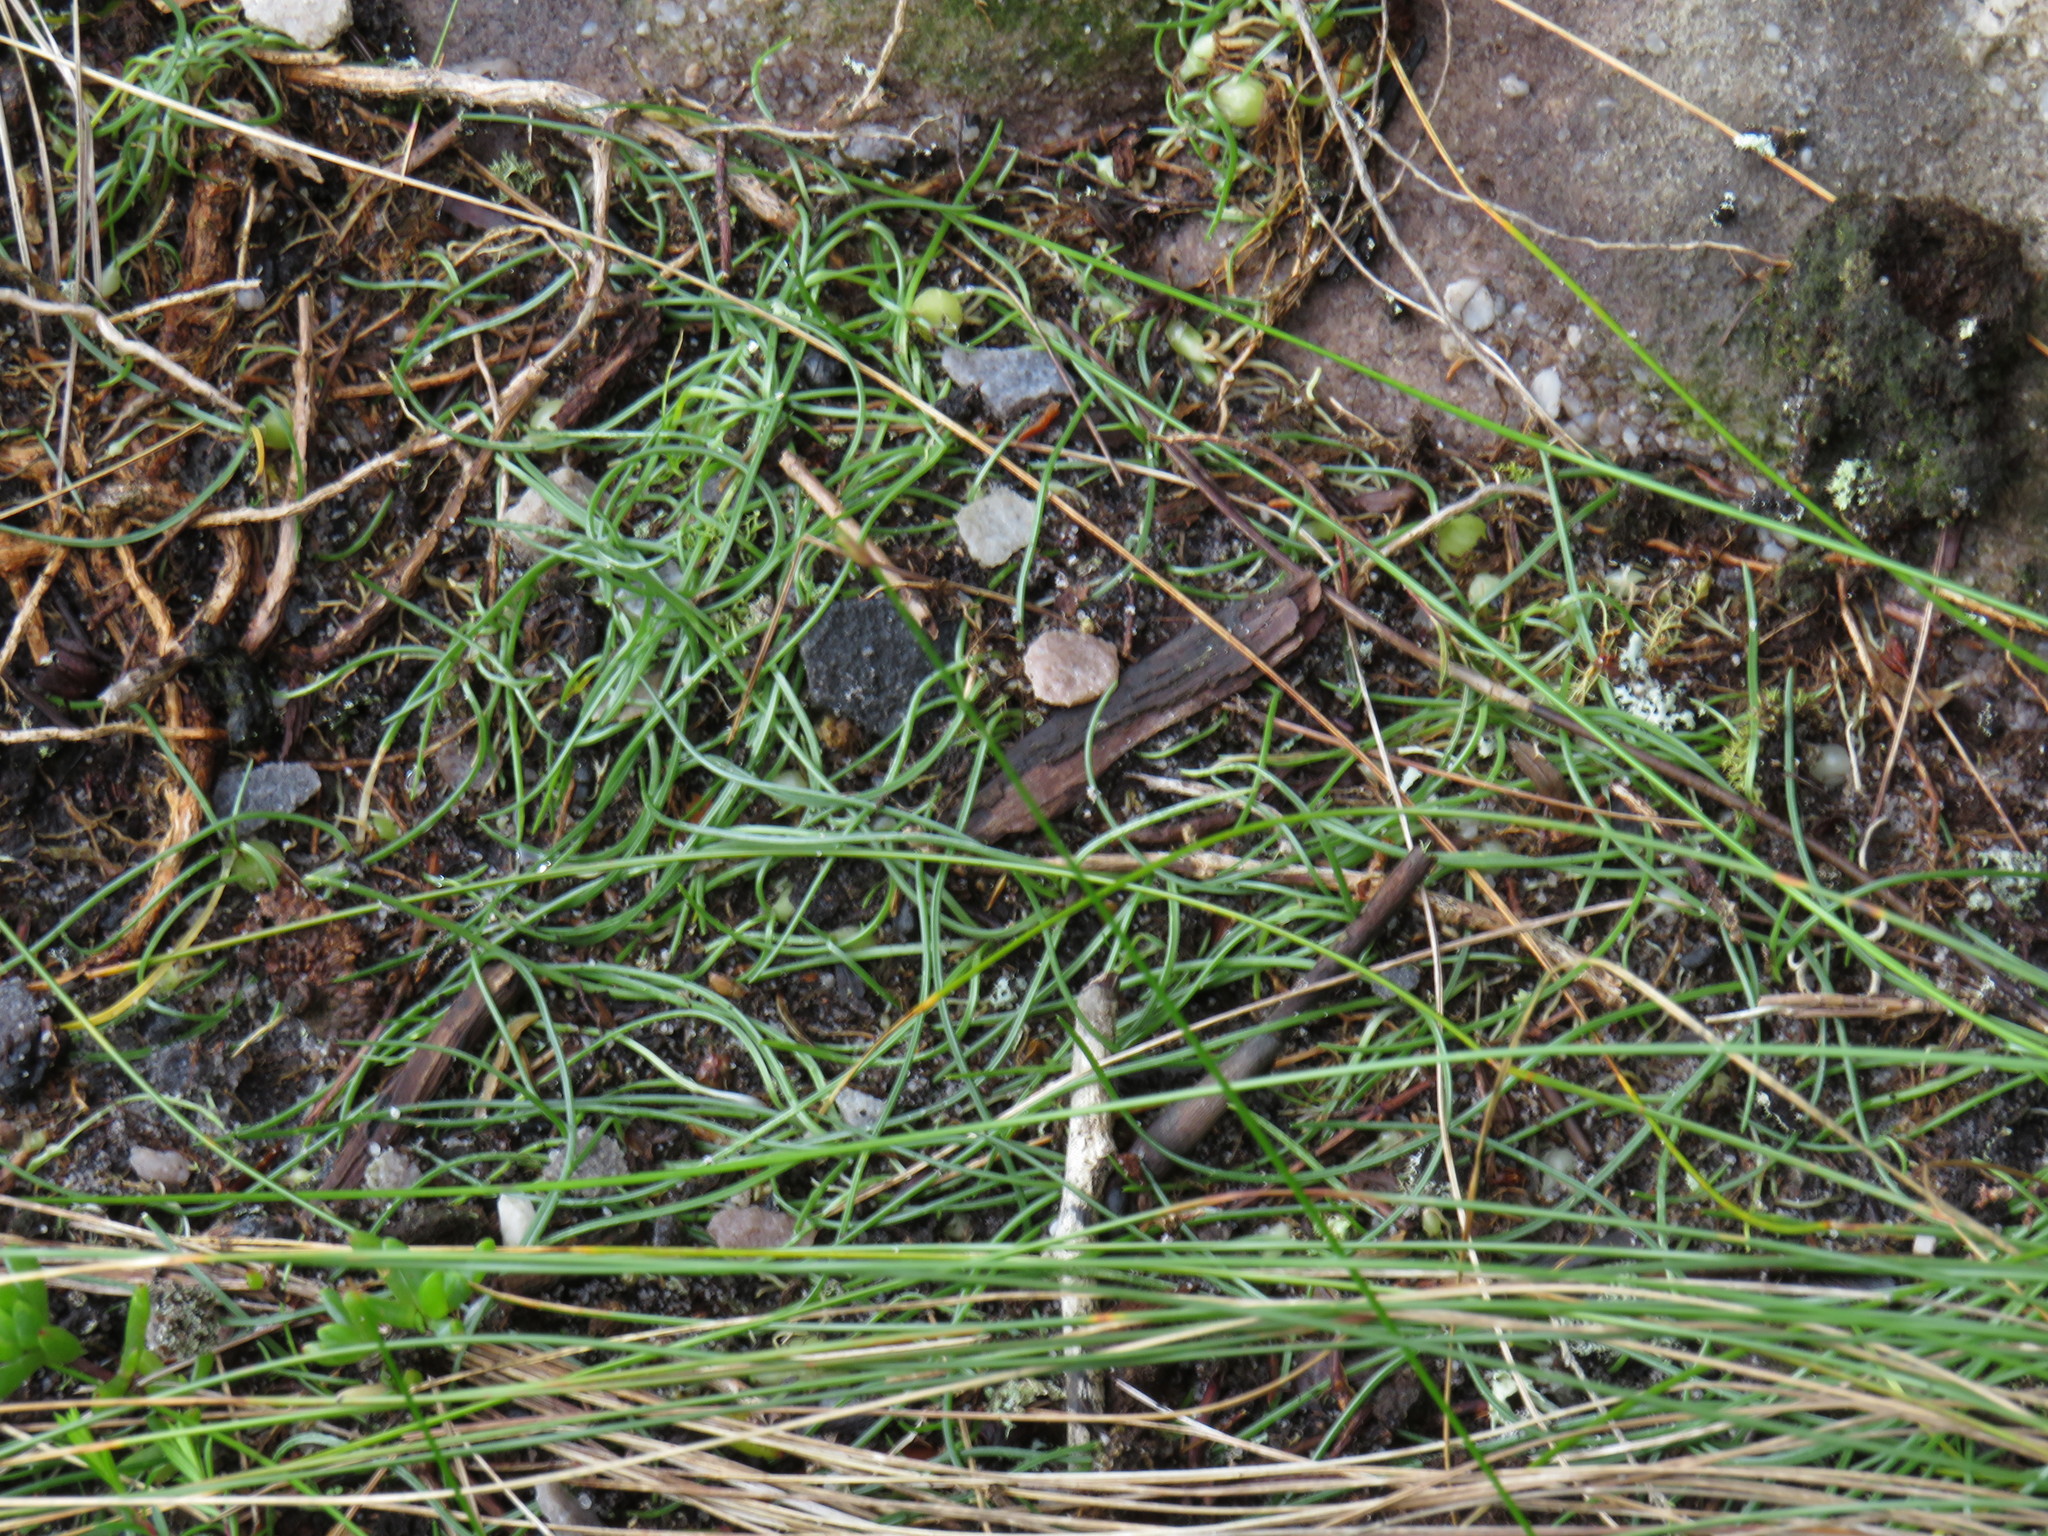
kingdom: Plantae
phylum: Tracheophyta
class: Liliopsida
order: Asparagales
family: Asparagaceae
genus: Ornithogalum
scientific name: Ornithogalum niveum
